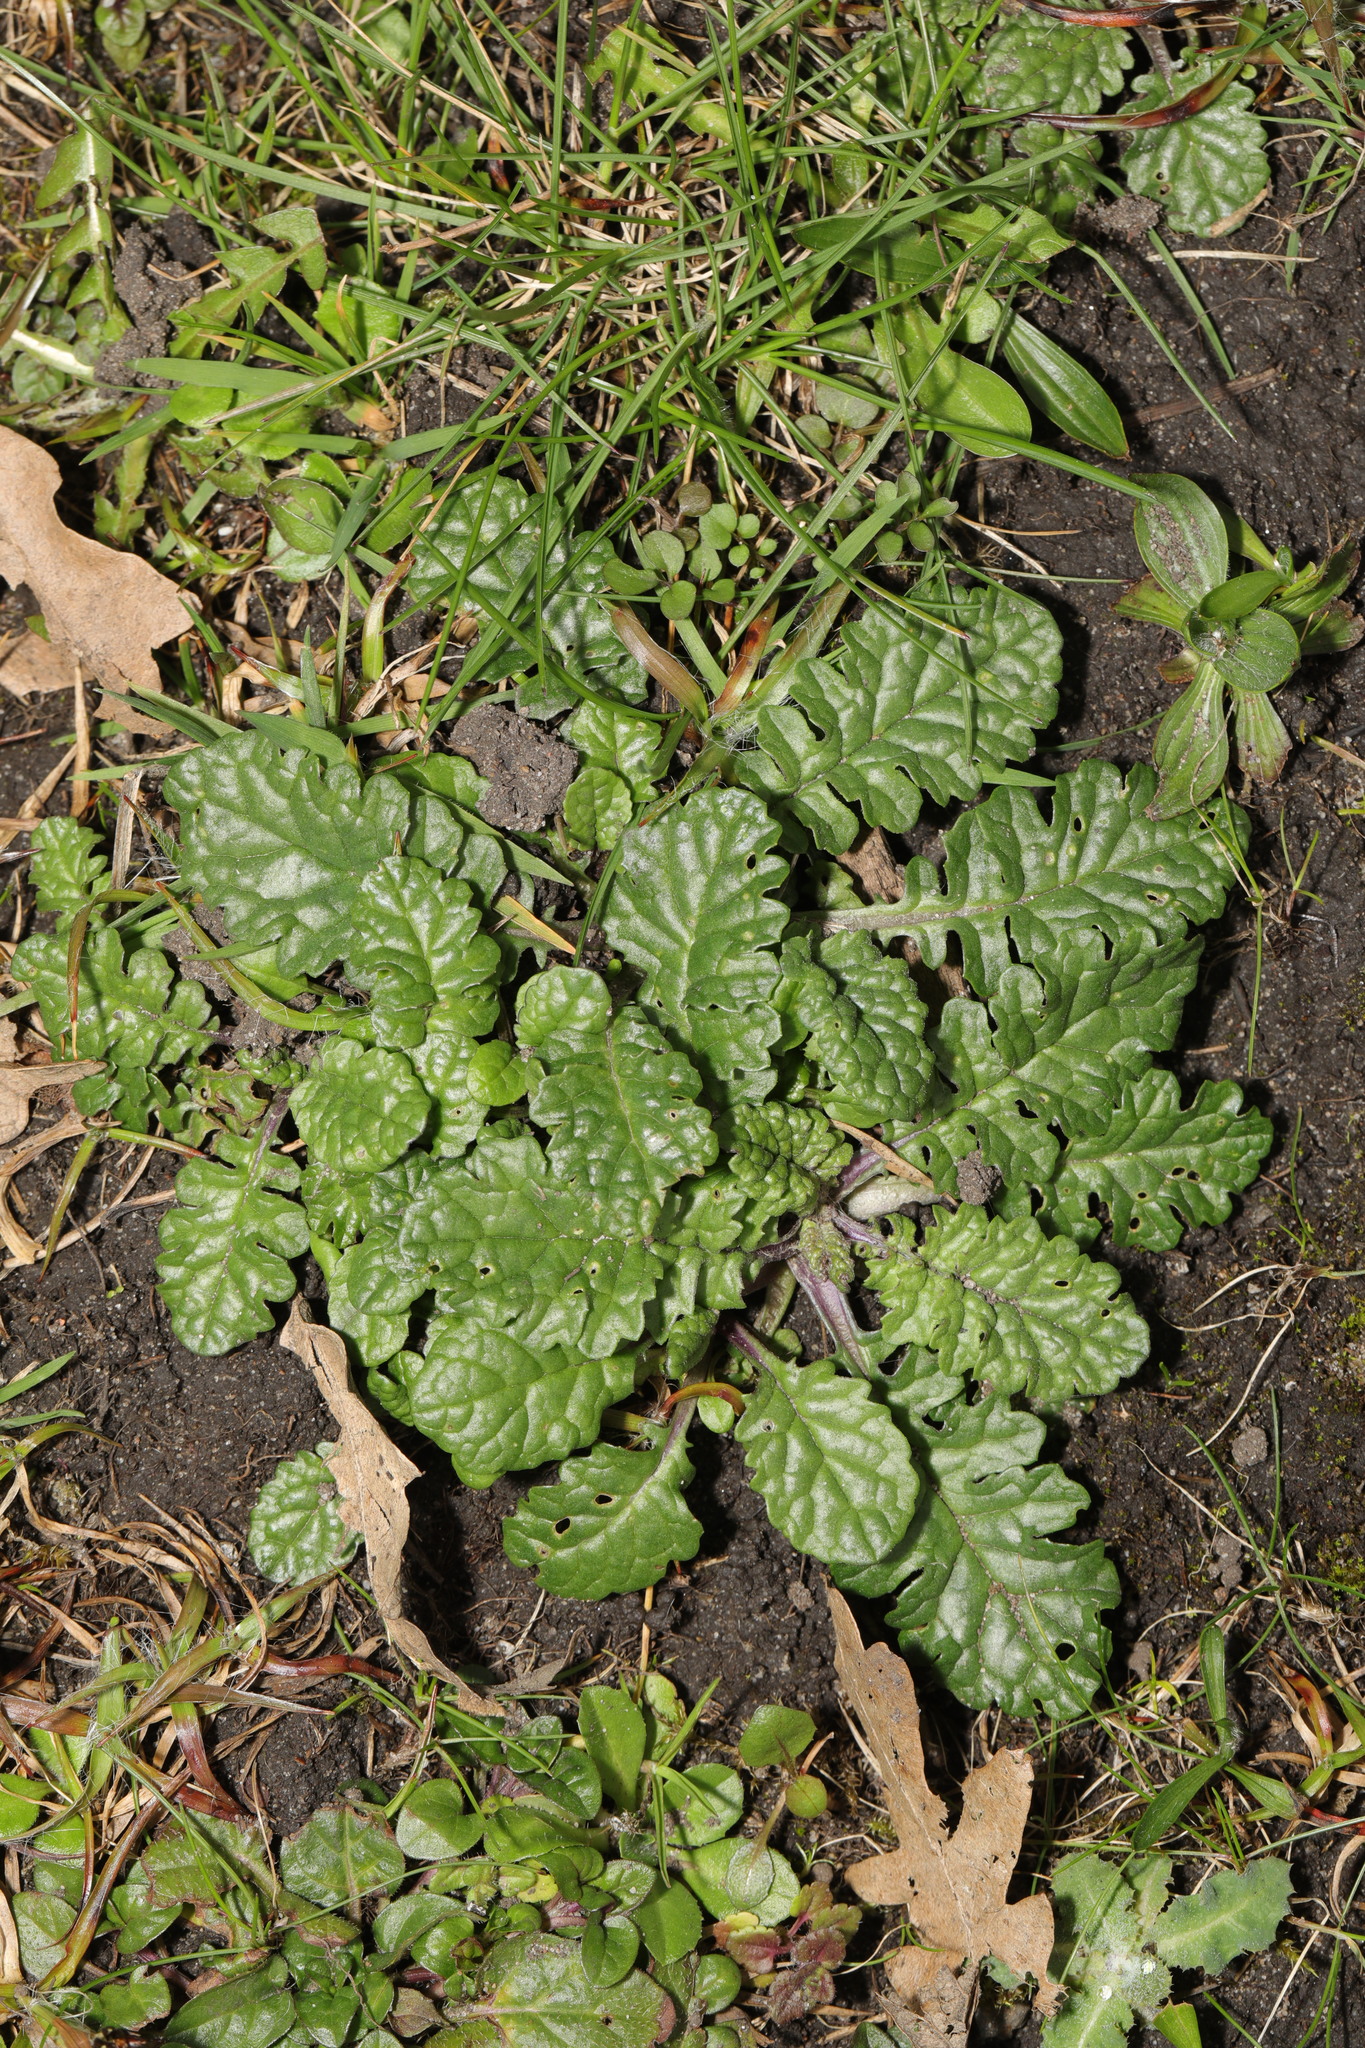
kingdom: Plantae
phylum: Tracheophyta
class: Magnoliopsida
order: Asterales
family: Asteraceae
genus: Jacobaea
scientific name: Jacobaea vulgaris
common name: Stinking willie
